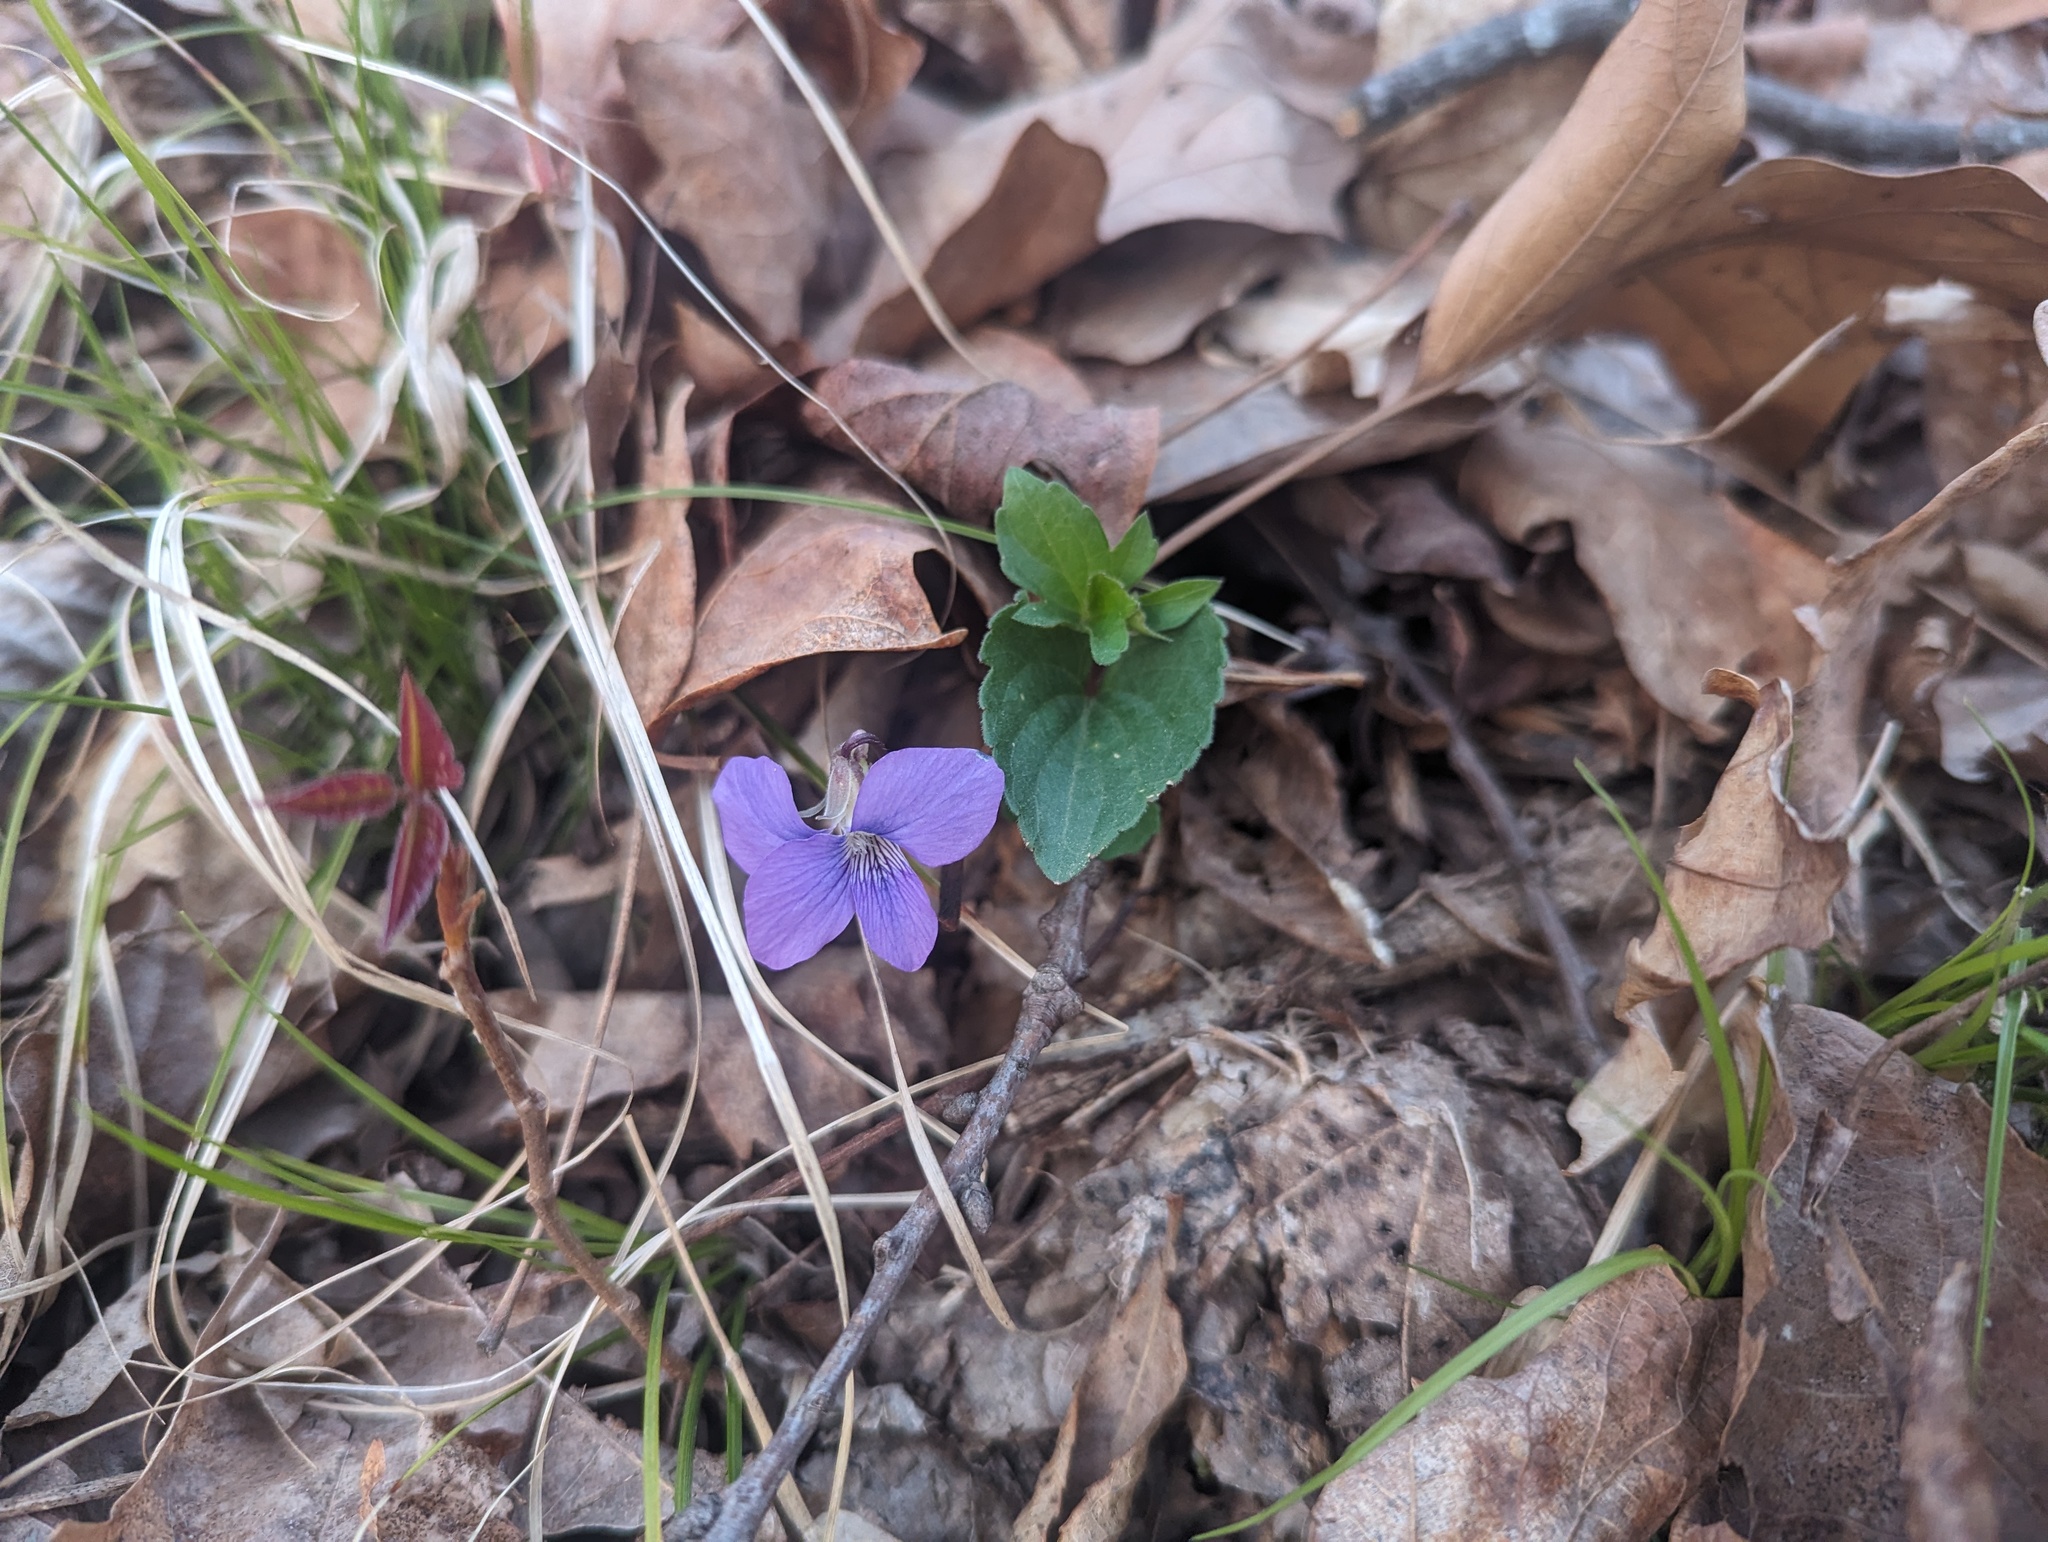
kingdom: Plantae
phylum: Tracheophyta
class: Magnoliopsida
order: Malpighiales
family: Violaceae
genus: Viola
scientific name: Viola palmata
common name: Early blue violet
